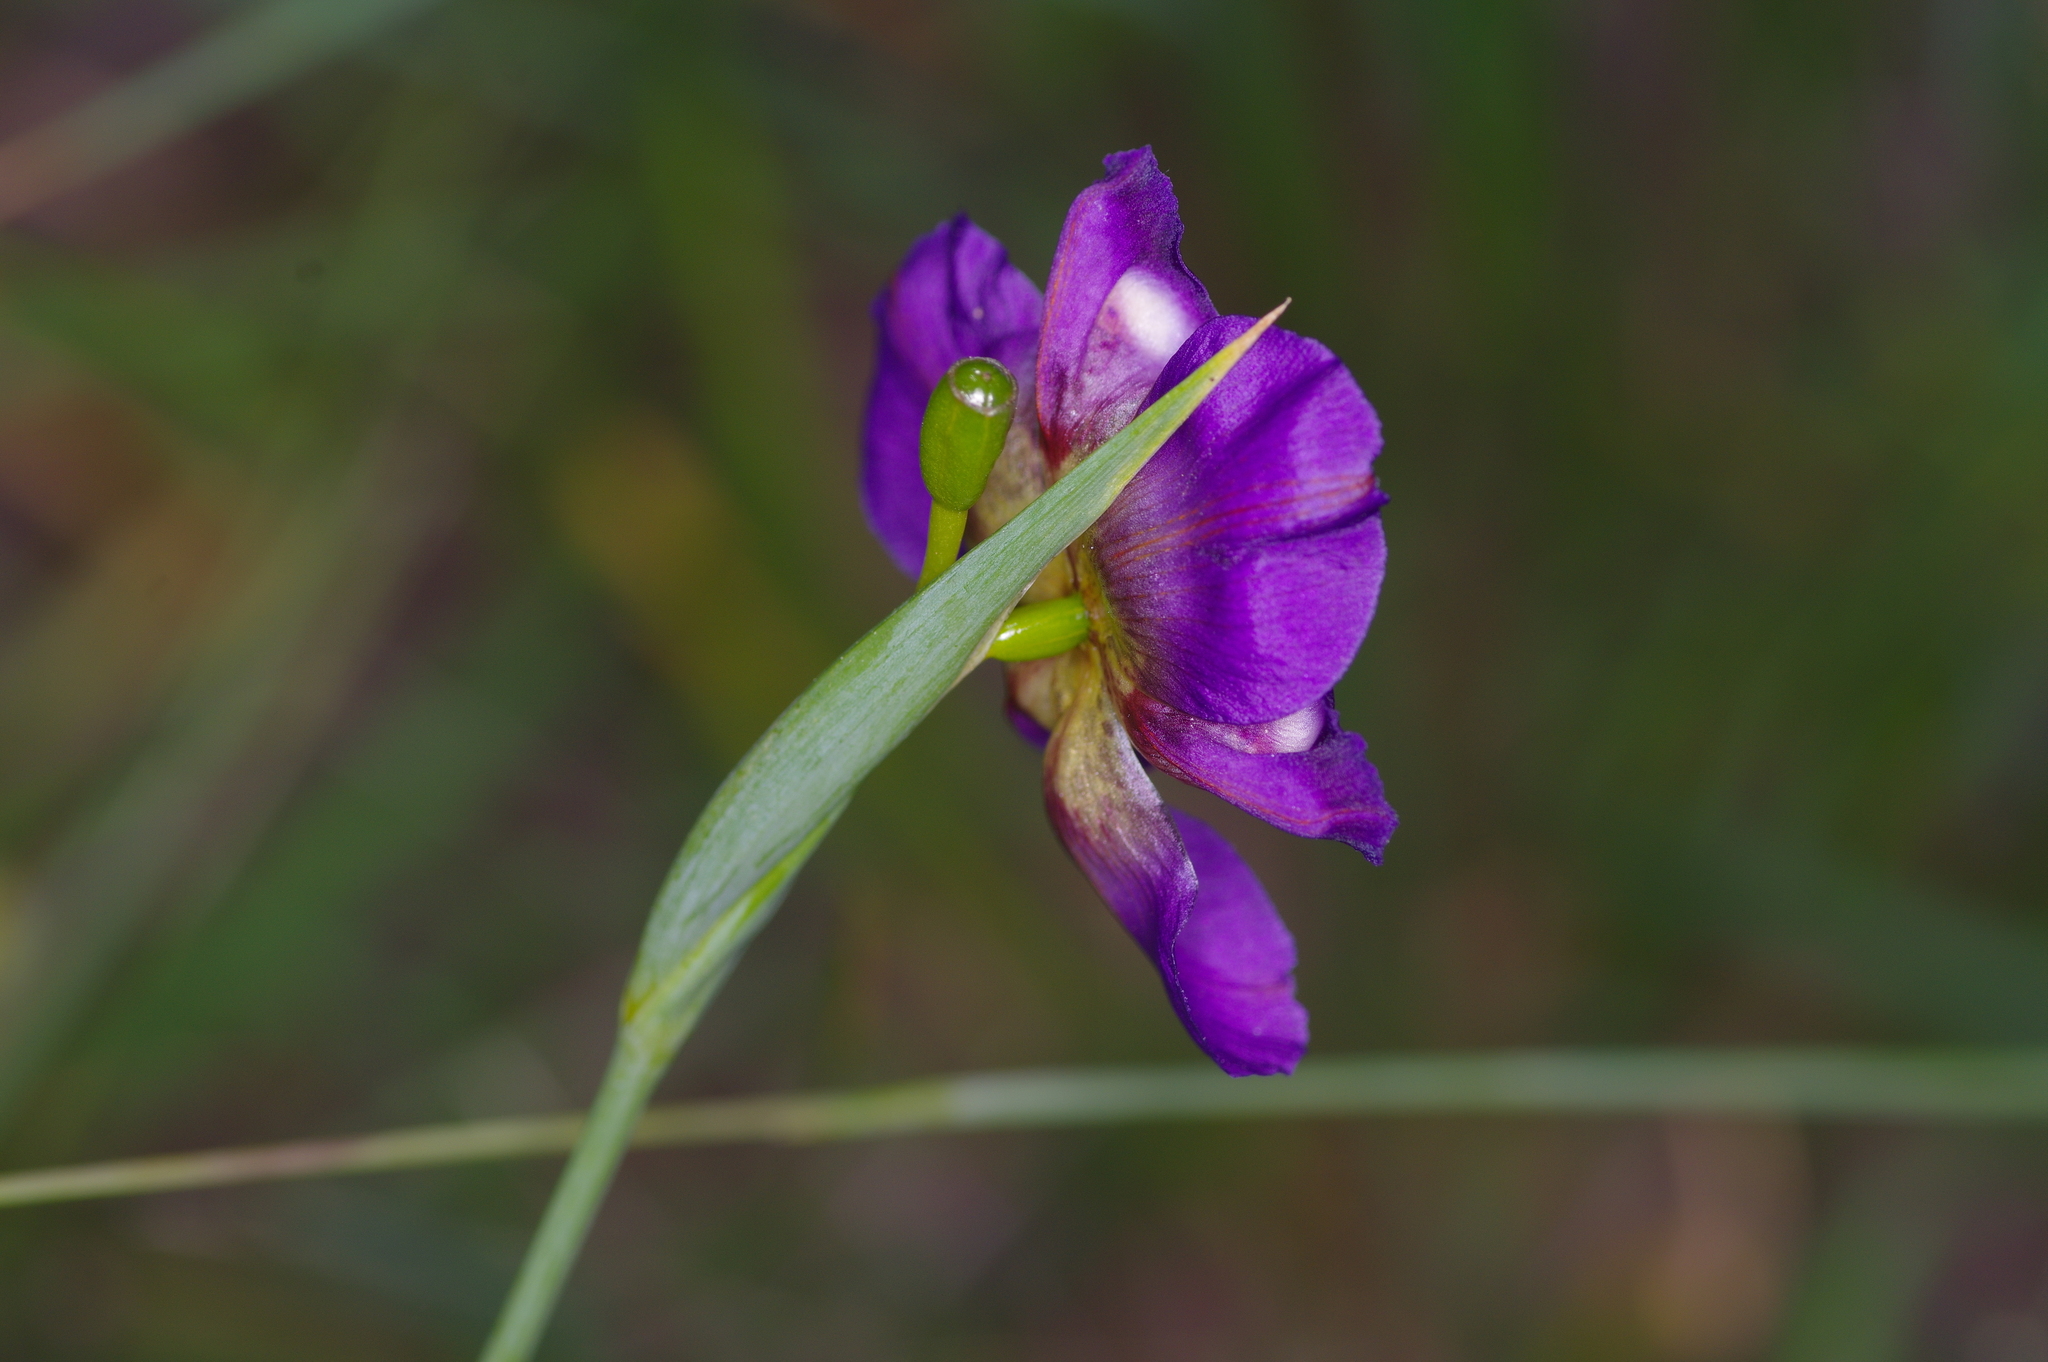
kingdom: Plantae
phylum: Tracheophyta
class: Liliopsida
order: Asparagales
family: Iridaceae
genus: Alophia
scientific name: Alophia drummondii
